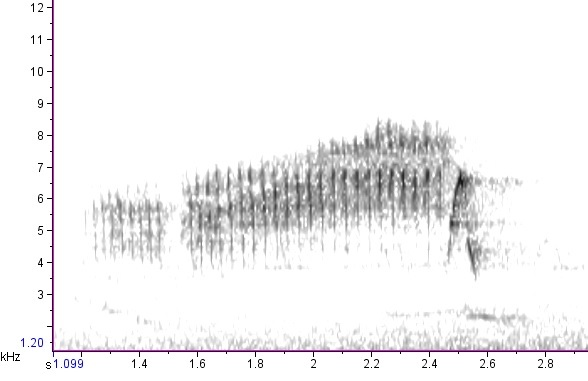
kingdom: Animalia
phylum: Chordata
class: Aves
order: Passeriformes
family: Parulidae
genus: Setophaga
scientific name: Setophaga americana
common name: Northern parula
